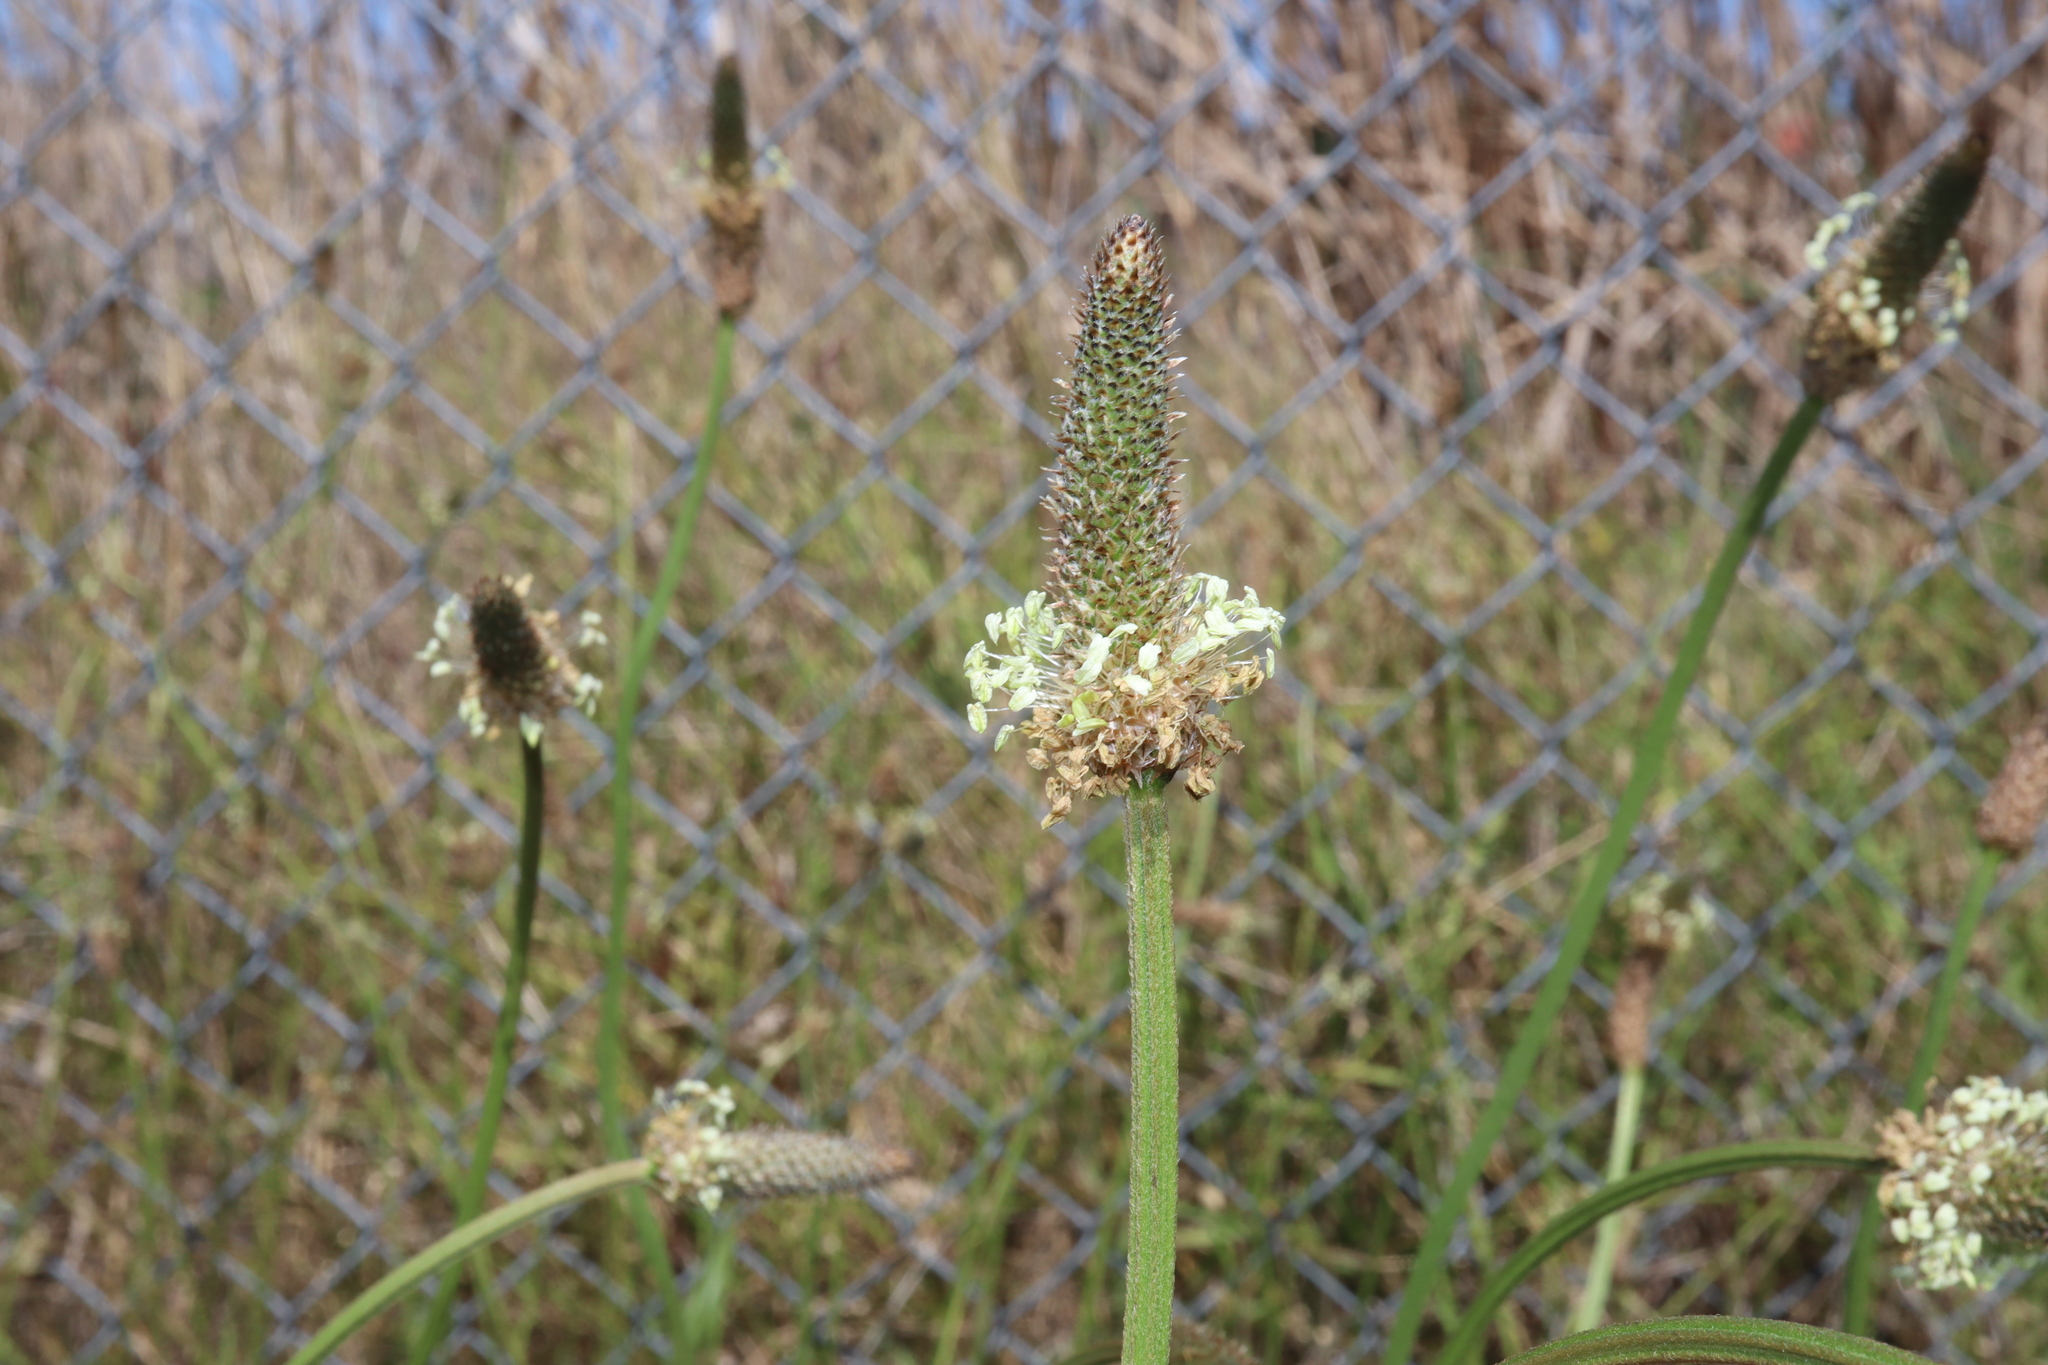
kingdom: Plantae
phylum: Tracheophyta
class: Magnoliopsida
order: Lamiales
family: Plantaginaceae
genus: Plantago
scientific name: Plantago lanceolata
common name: Ribwort plantain
